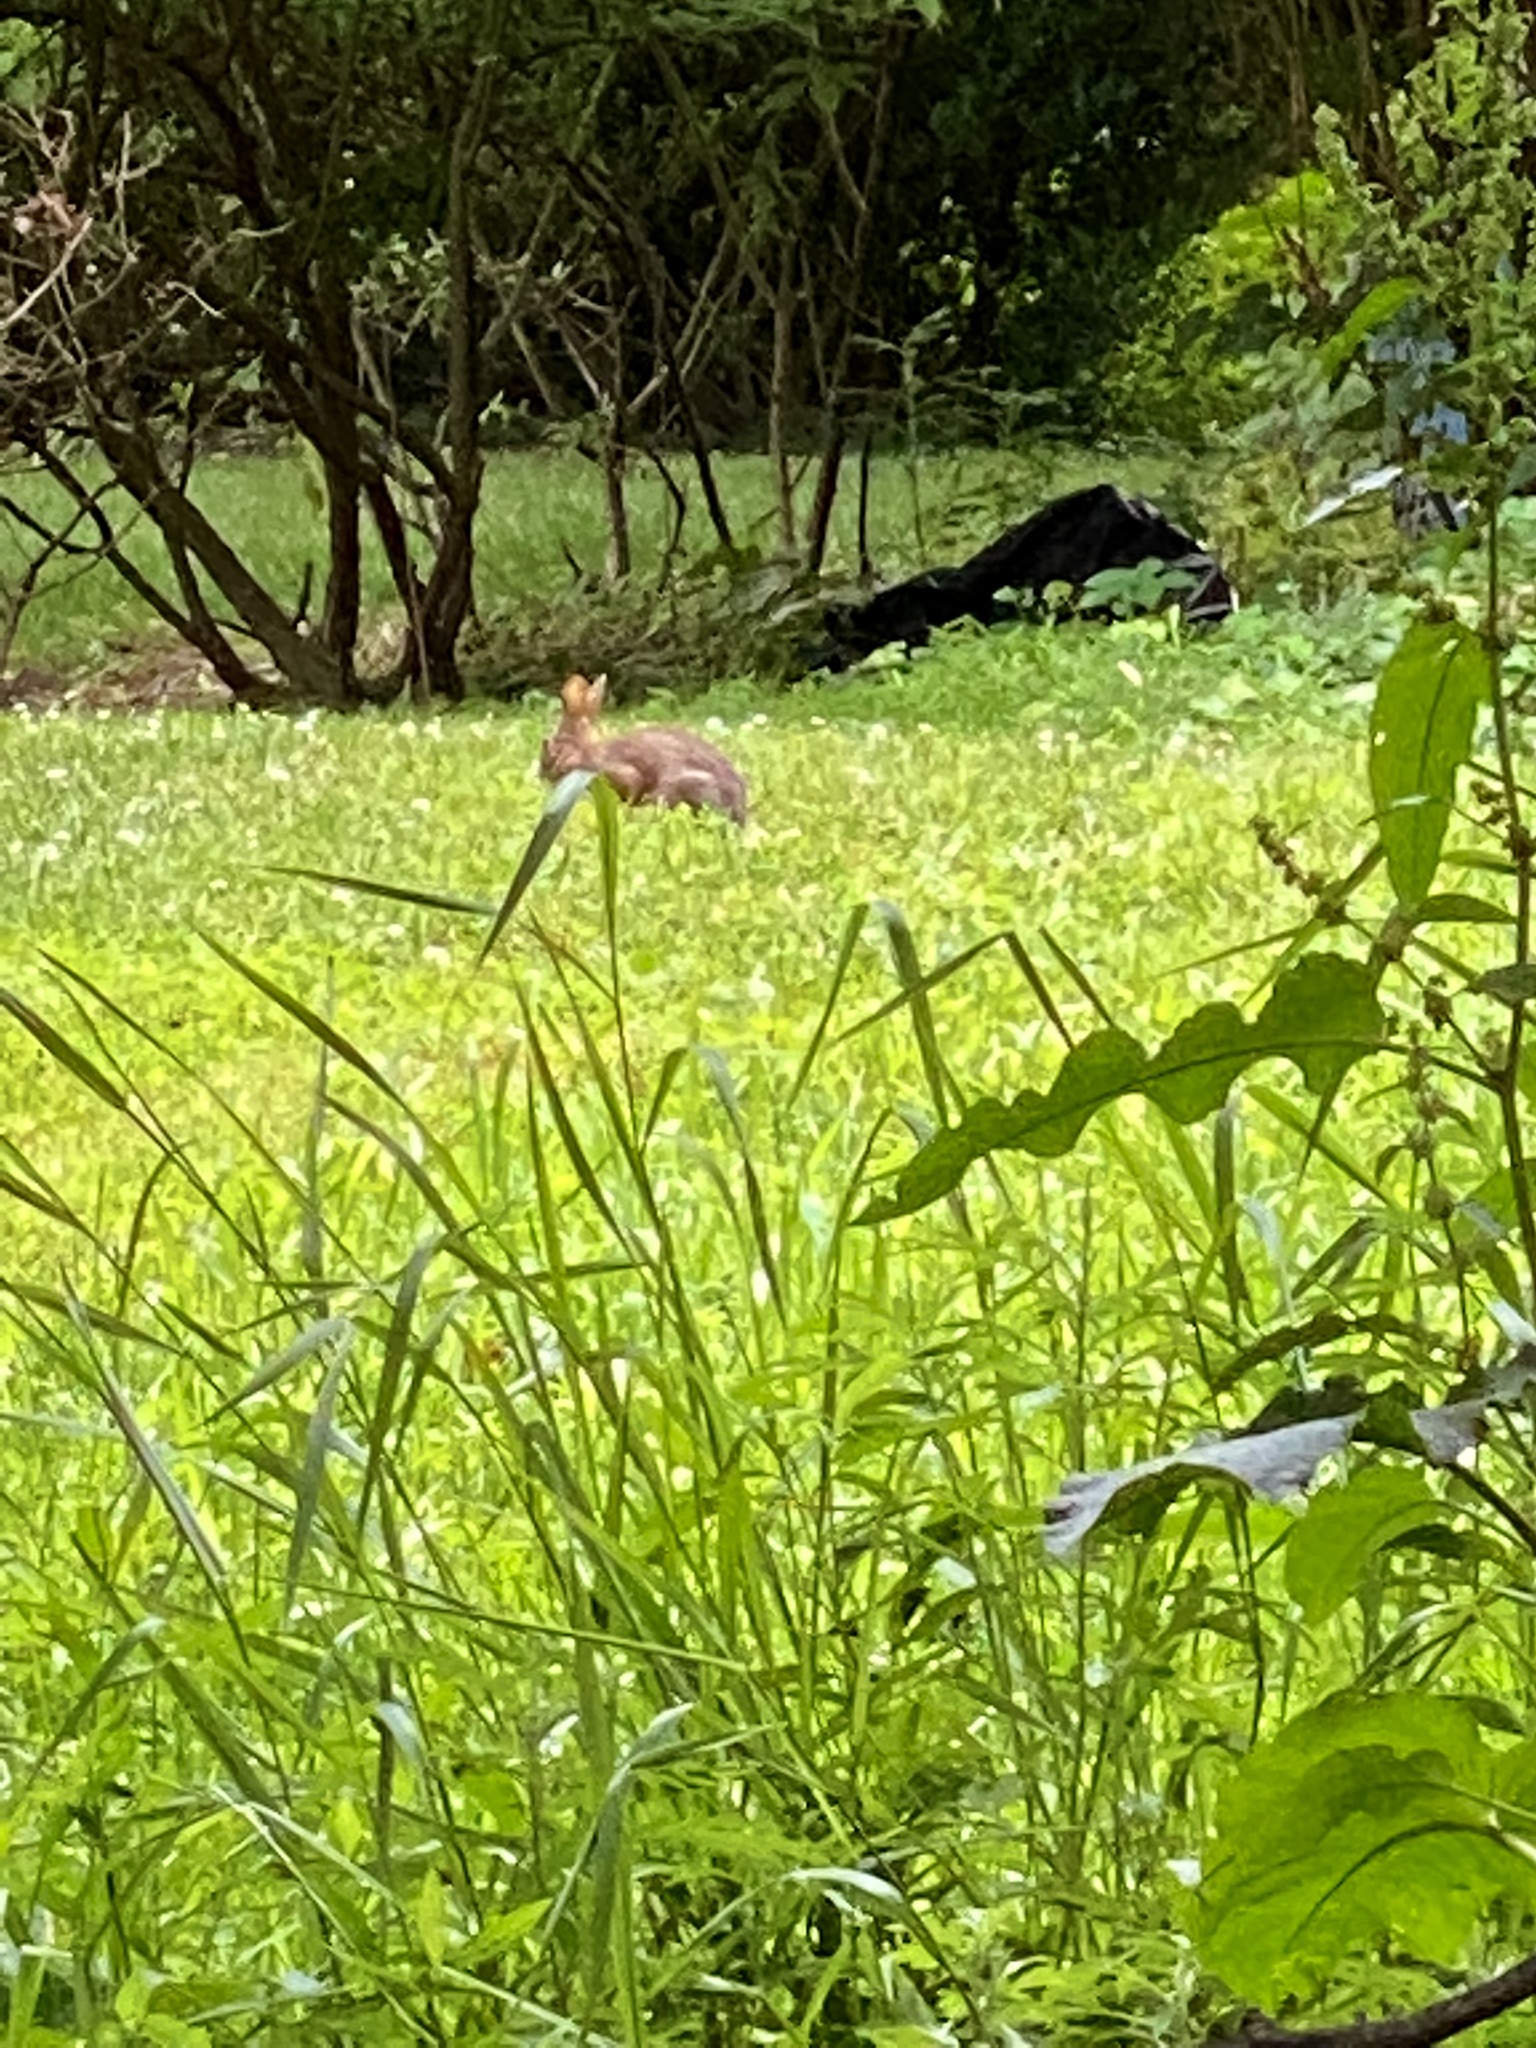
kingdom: Animalia
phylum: Chordata
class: Mammalia
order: Lagomorpha
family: Leporidae
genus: Sylvilagus
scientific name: Sylvilagus floridanus
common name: Eastern cottontail
